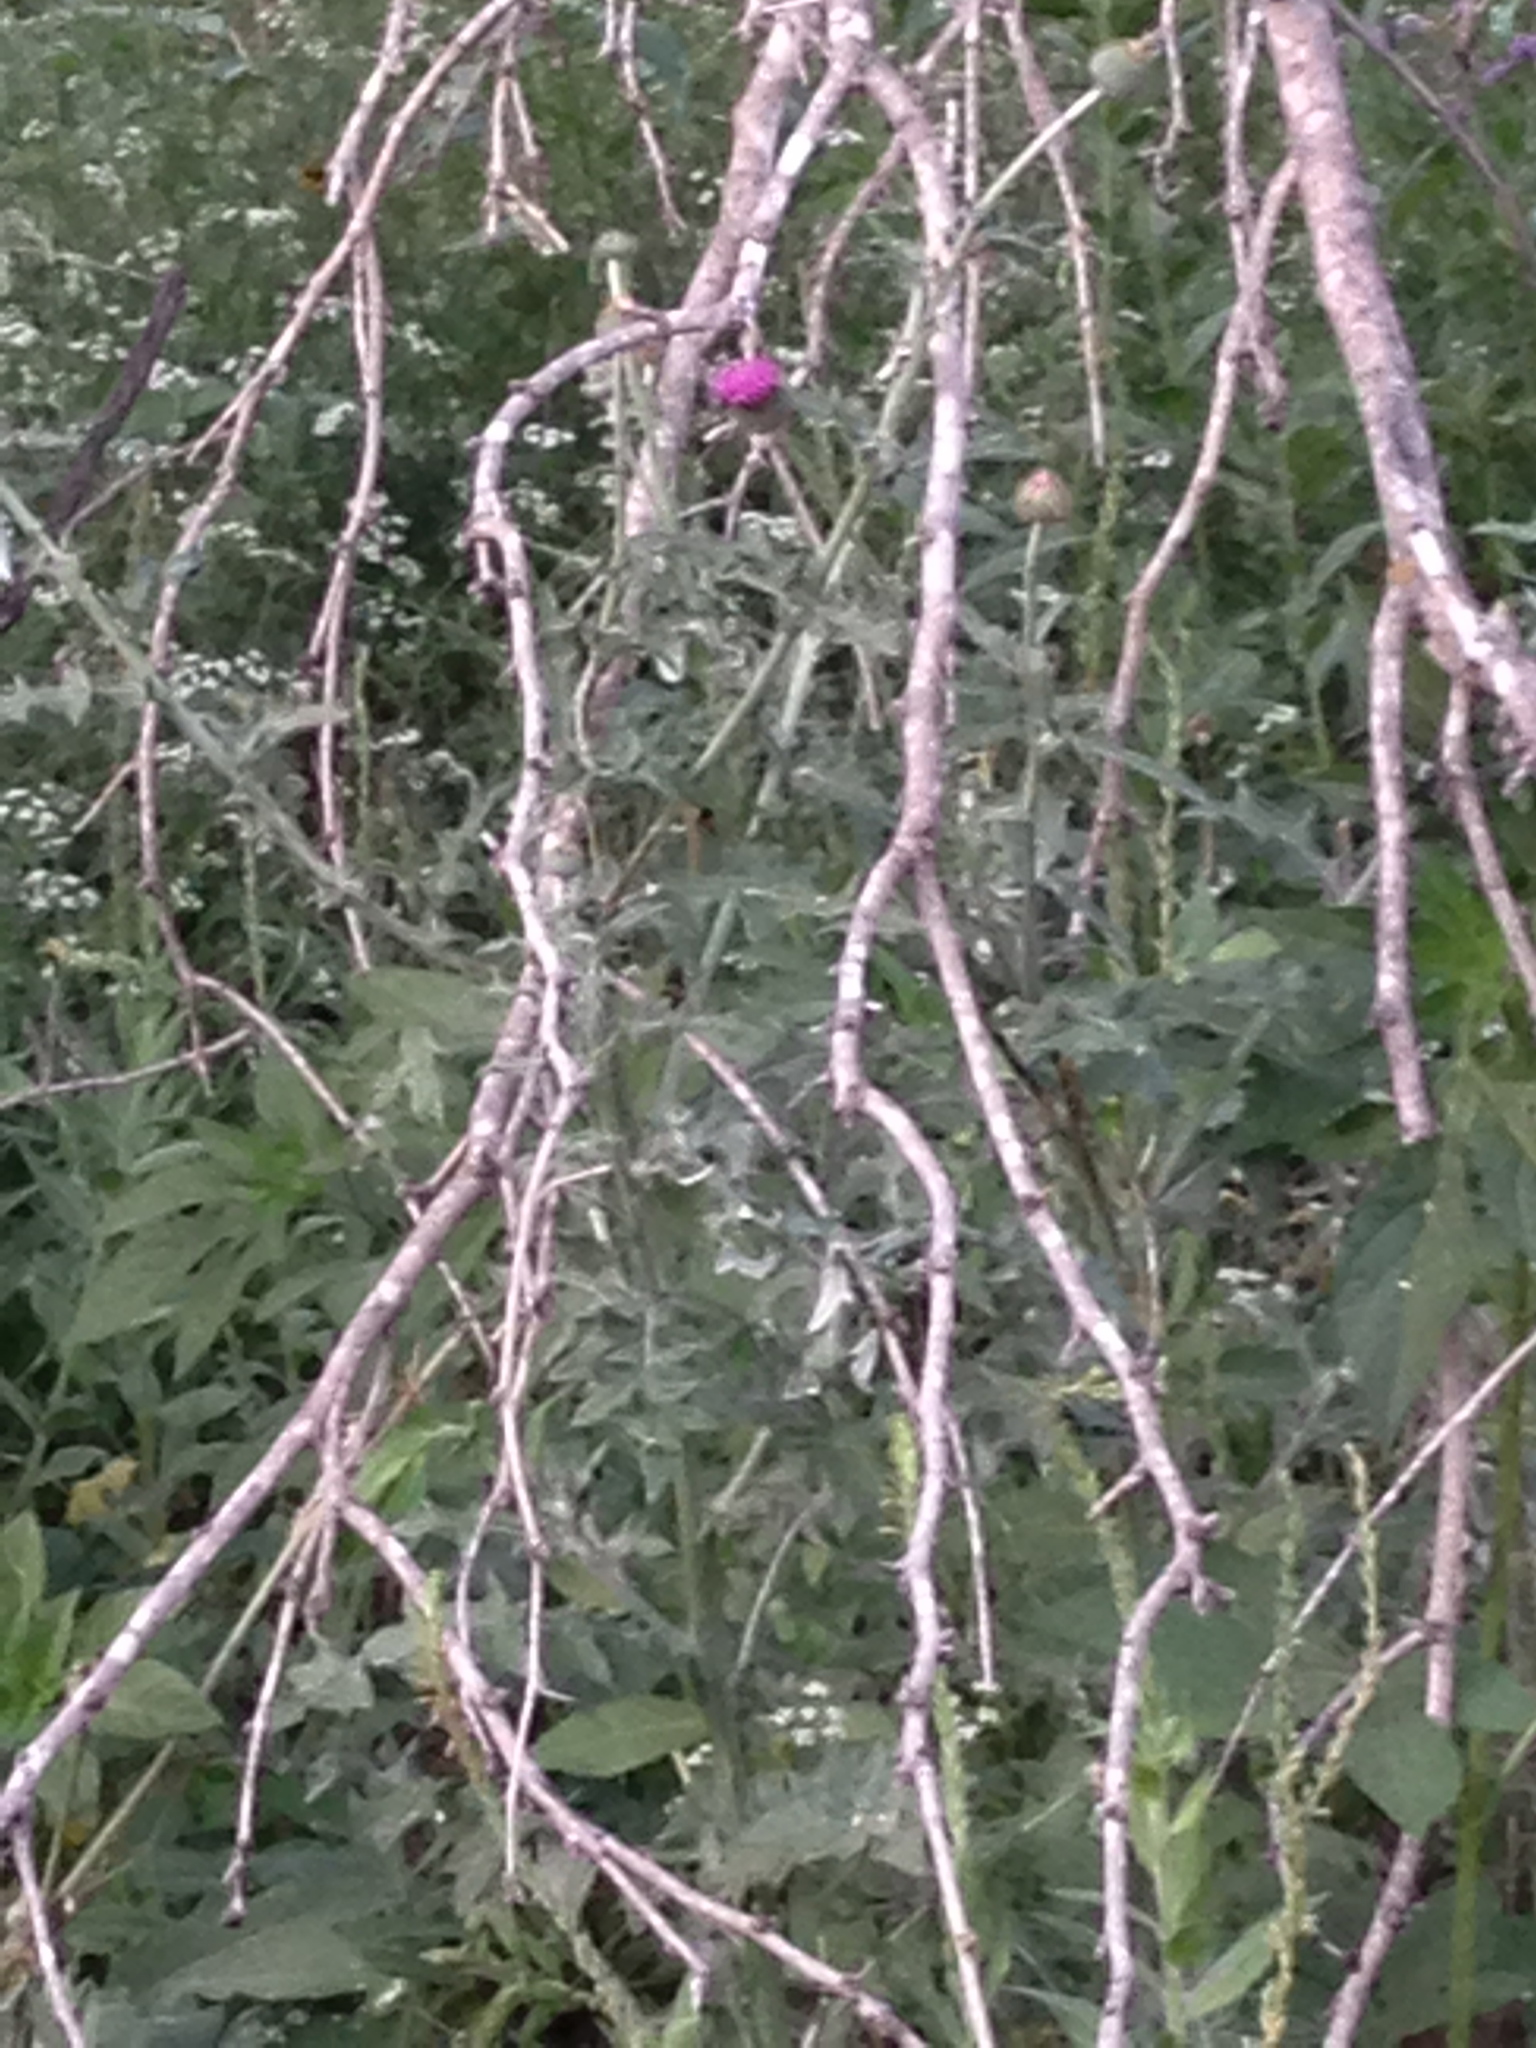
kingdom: Plantae
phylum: Tracheophyta
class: Magnoliopsida
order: Asterales
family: Asteraceae
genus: Cirsium
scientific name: Cirsium texanum
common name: Texas purple thistle
